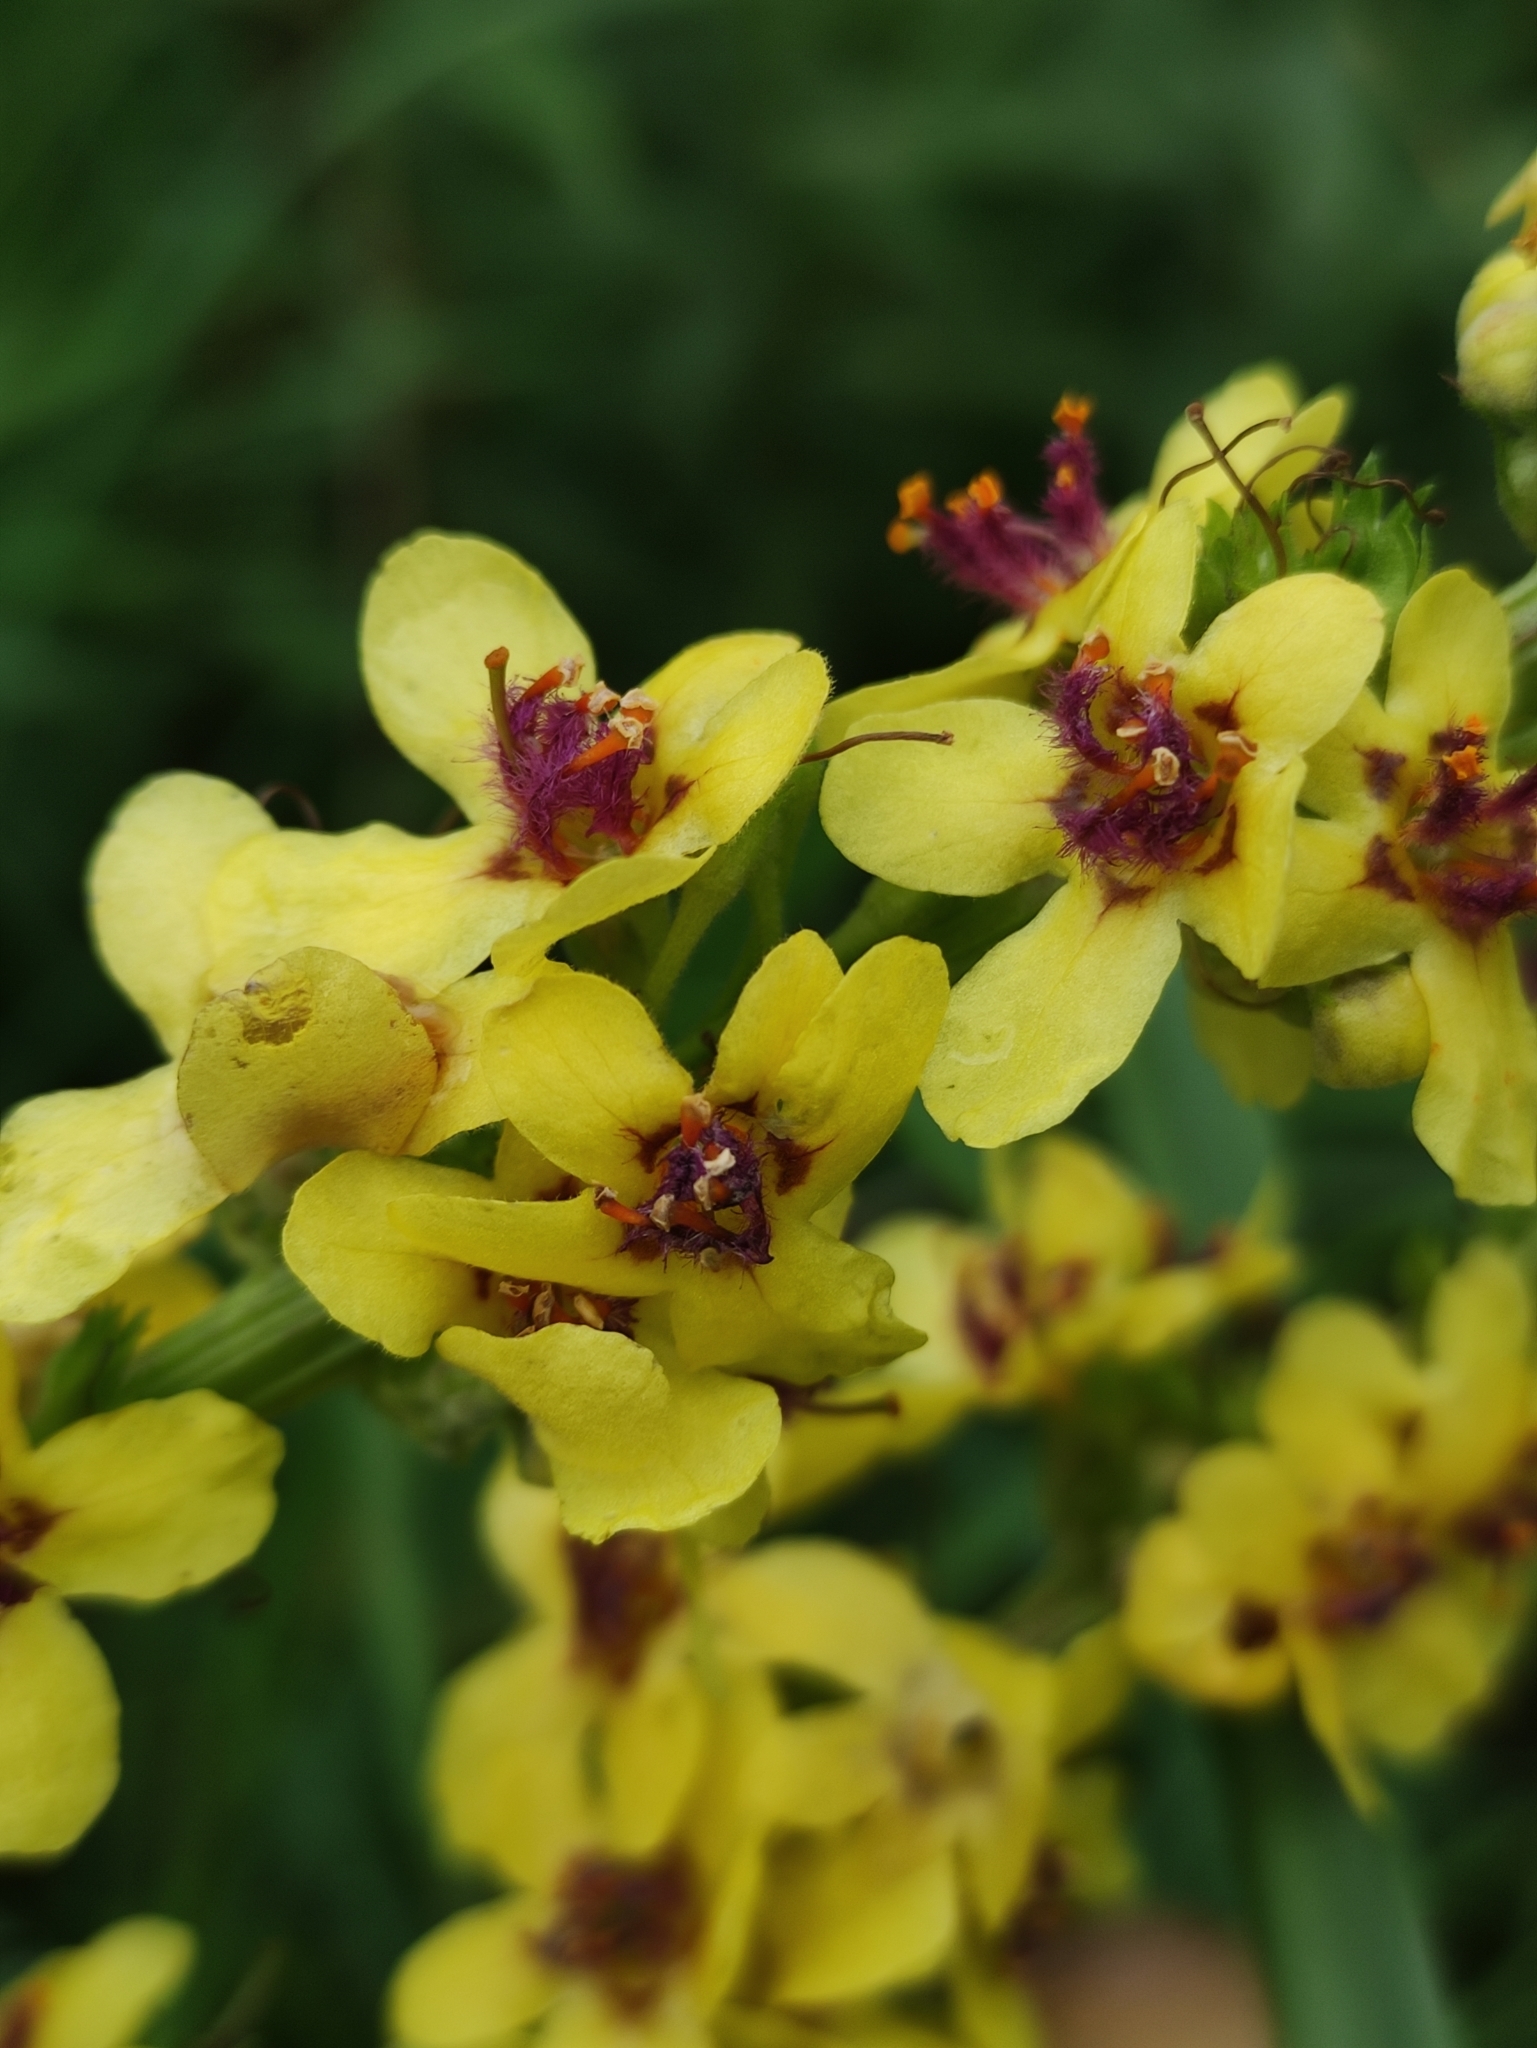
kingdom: Plantae
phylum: Tracheophyta
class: Magnoliopsida
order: Lamiales
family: Scrophulariaceae
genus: Verbascum
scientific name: Verbascum nigrum
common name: Dark mullein
